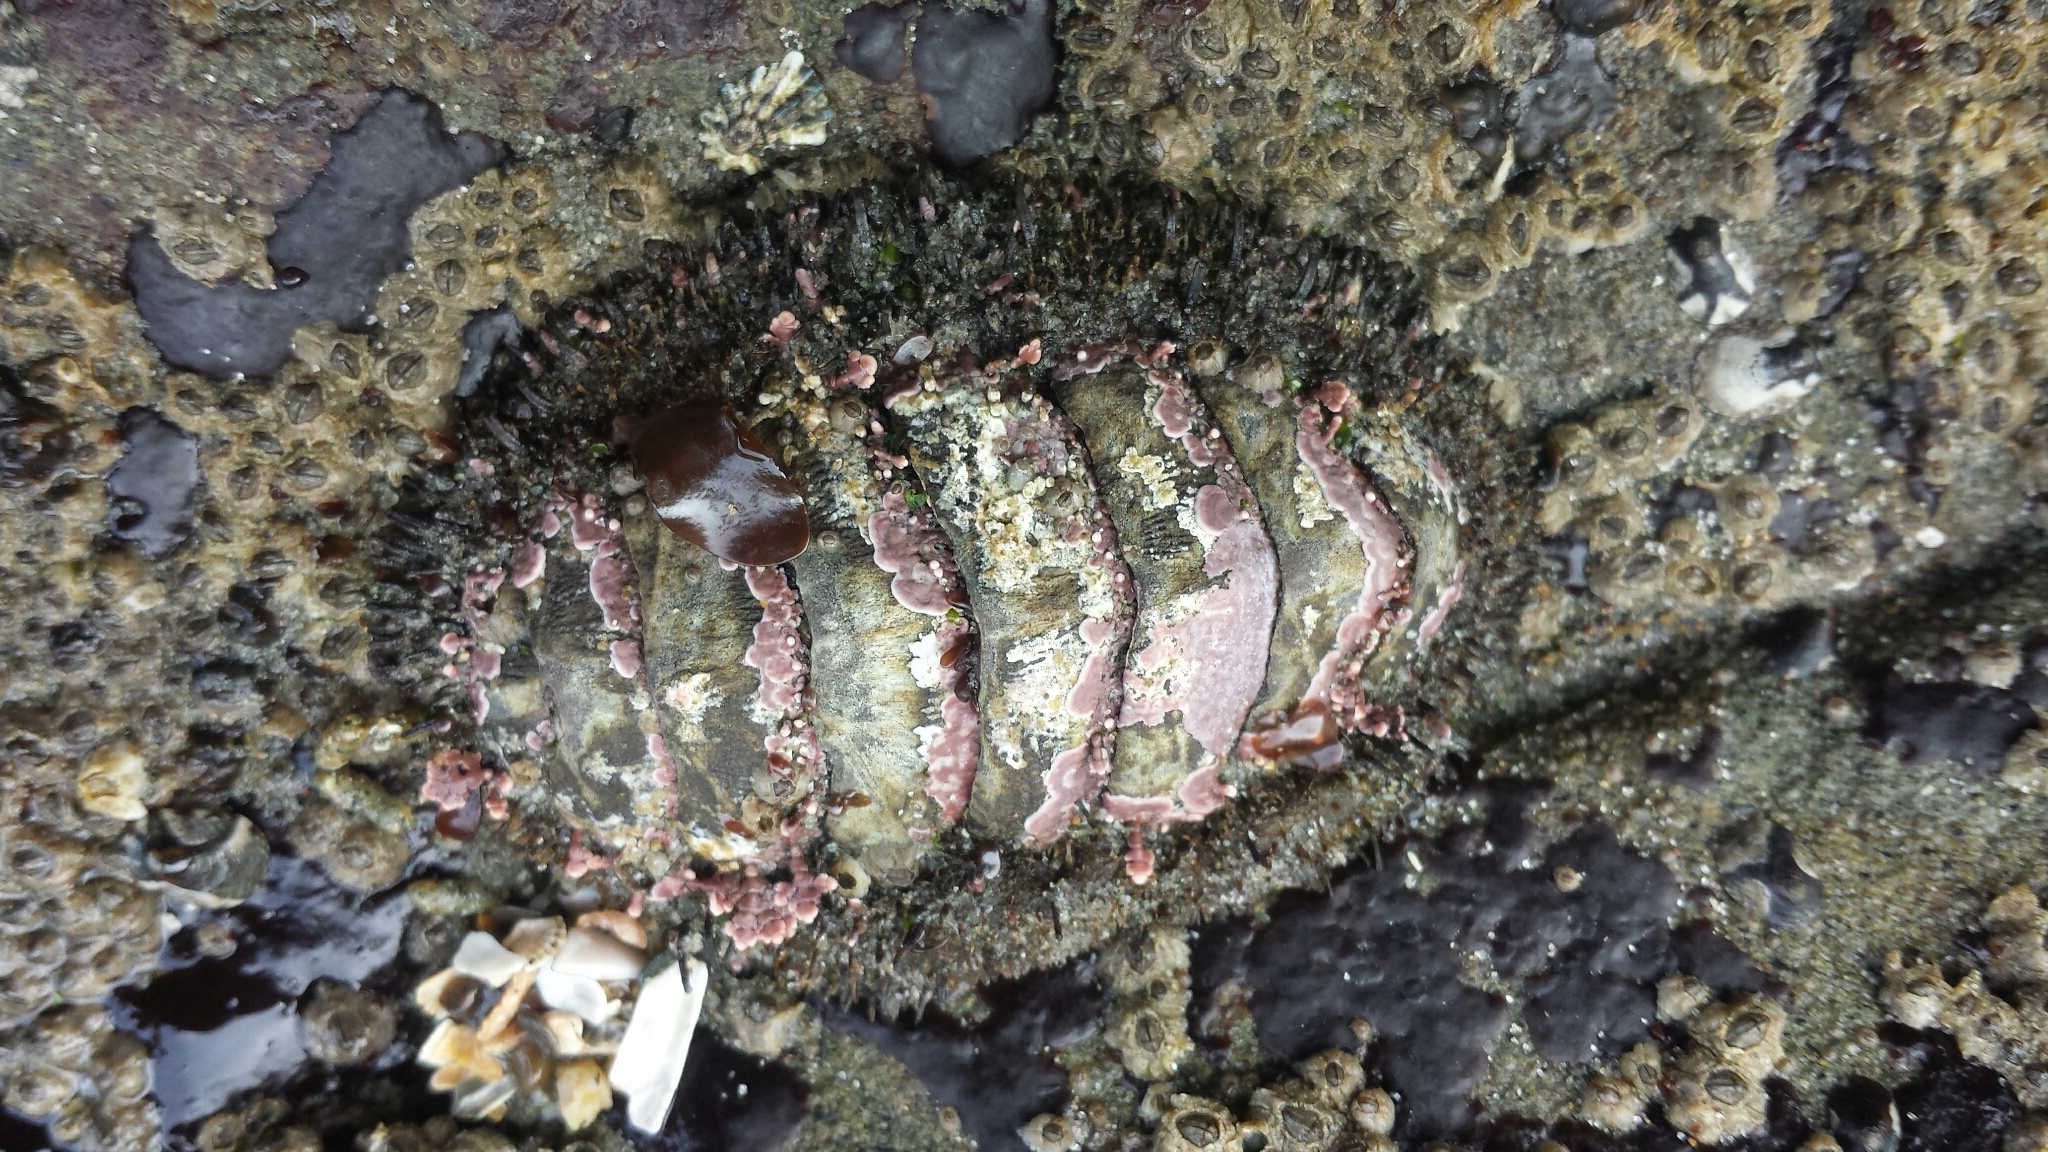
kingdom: Animalia
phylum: Mollusca
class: Polyplacophora
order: Chitonida
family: Mopaliidae
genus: Mopalia
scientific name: Mopalia muscosa
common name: Mossy chiton
